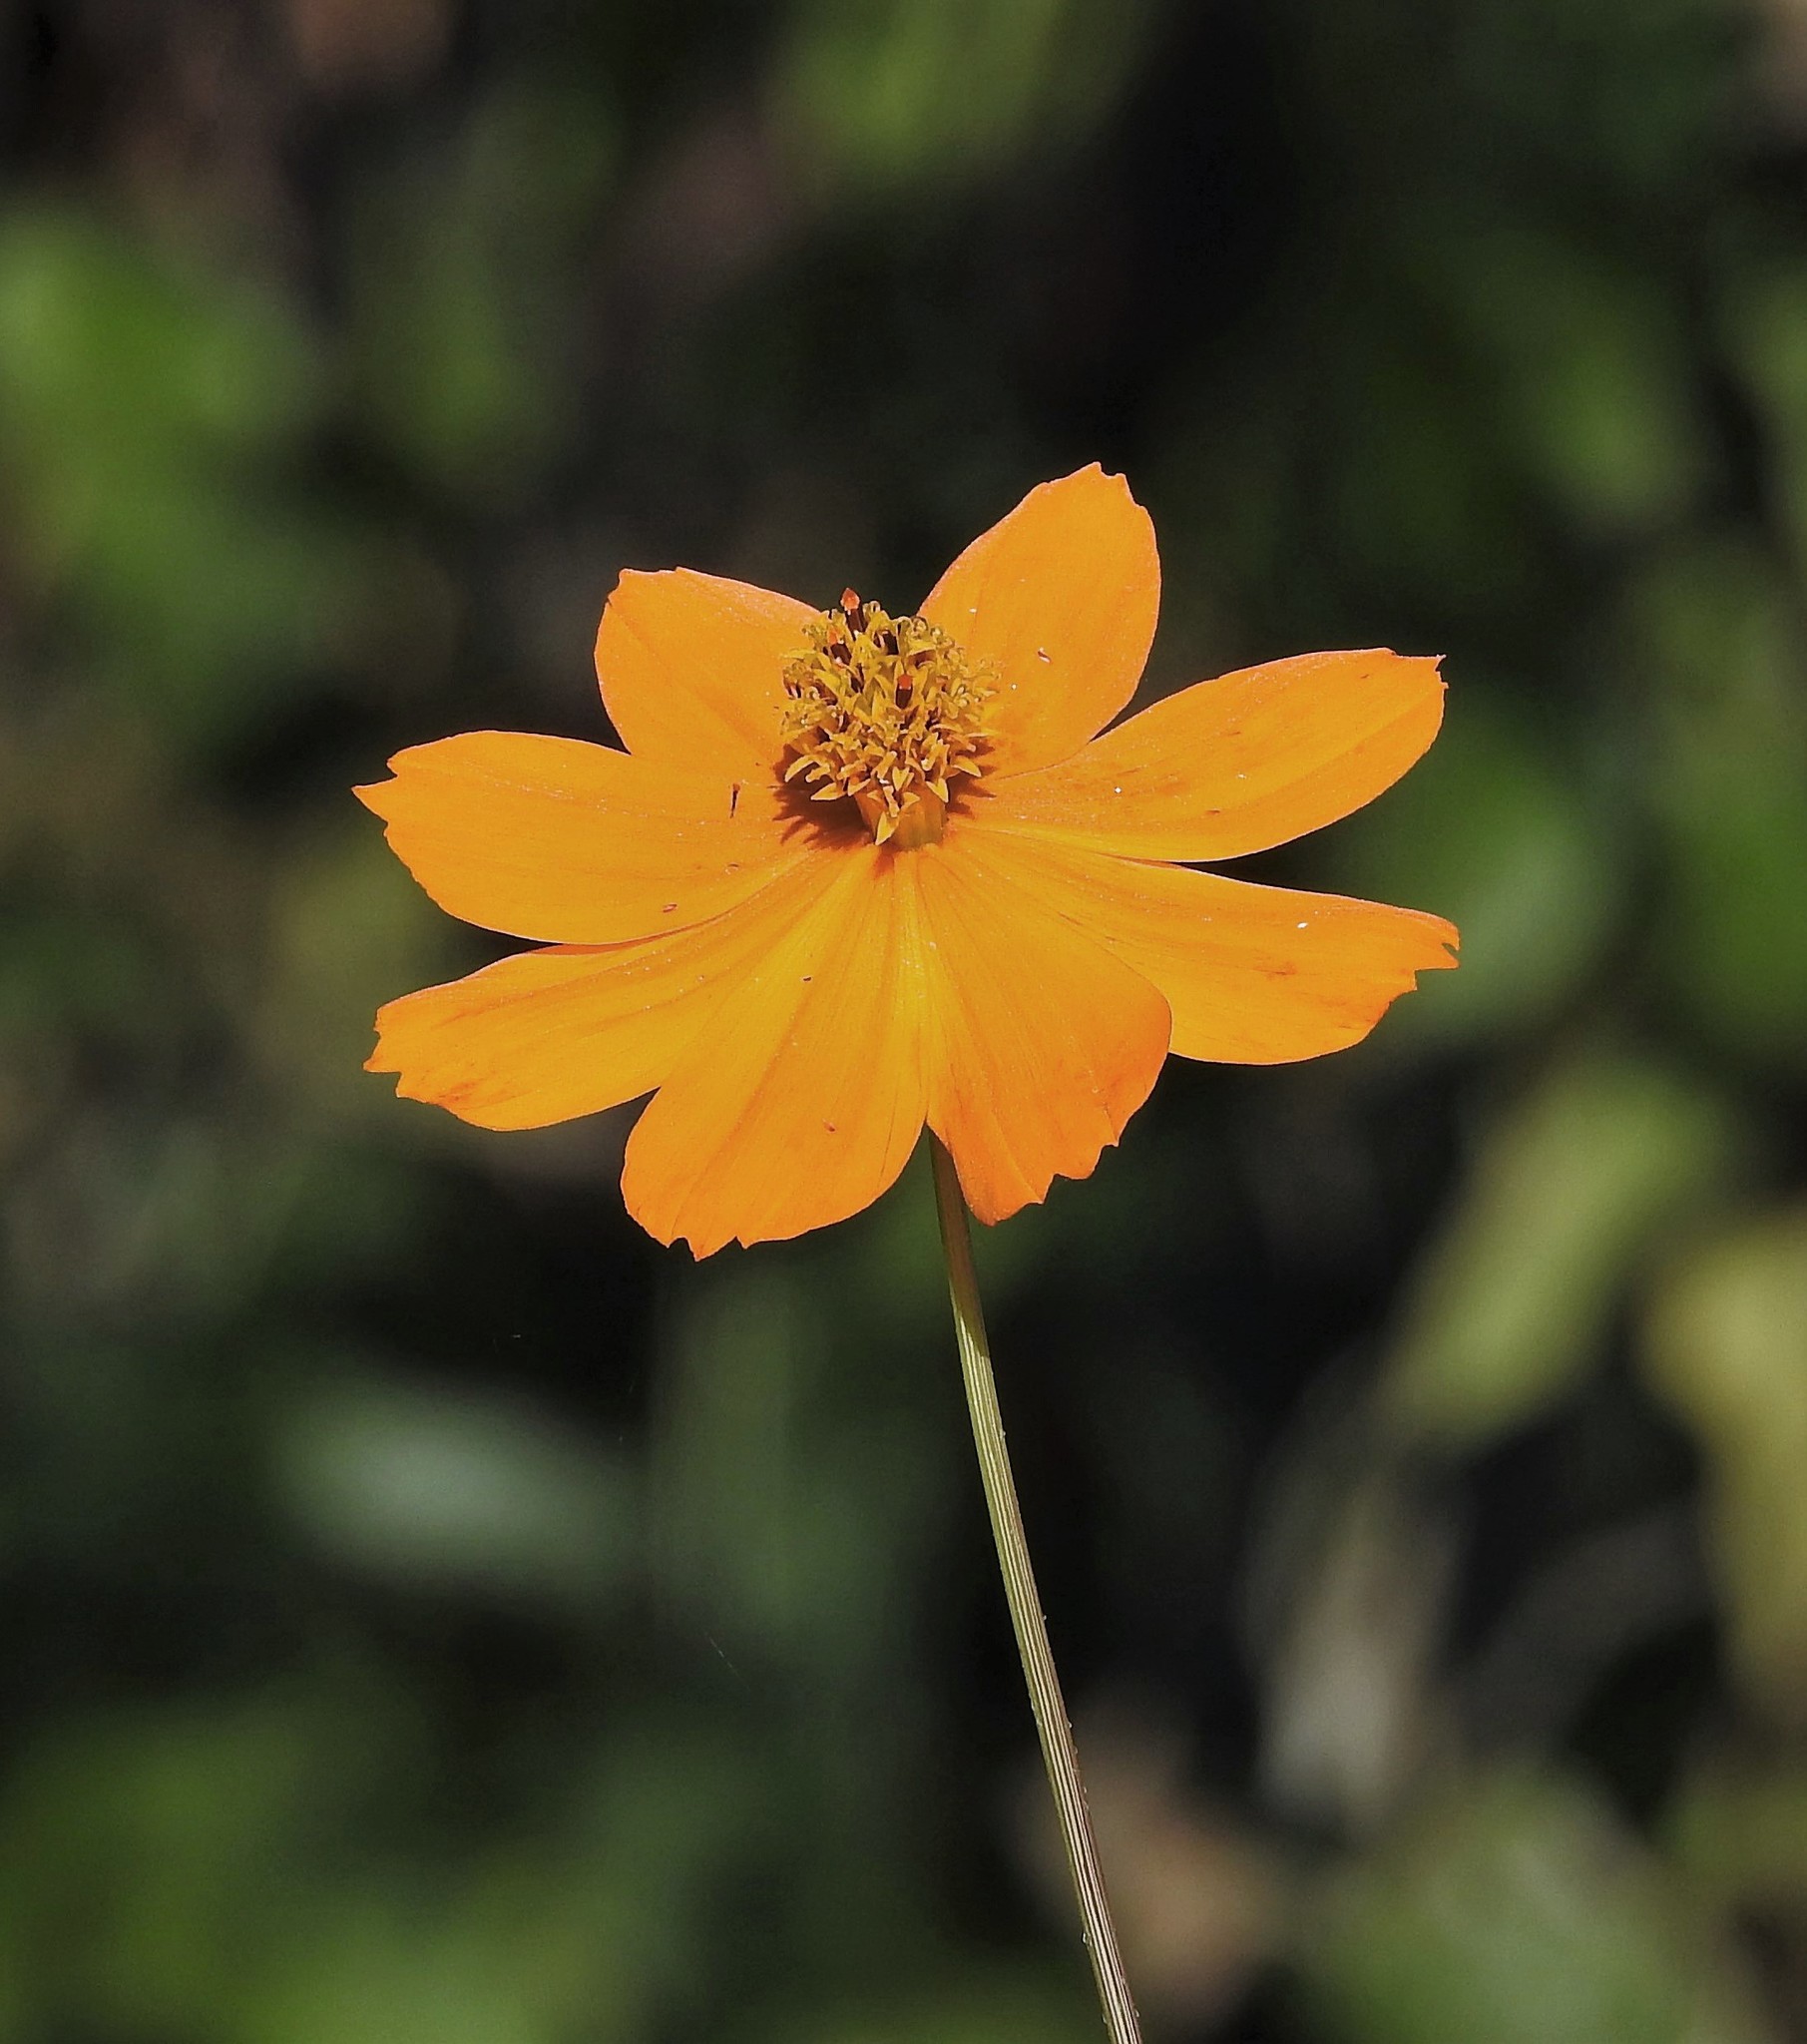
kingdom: Plantae
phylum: Tracheophyta
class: Magnoliopsida
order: Asterales
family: Asteraceae
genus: Cosmos
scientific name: Cosmos sulphureus
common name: Sulphur cosmos
